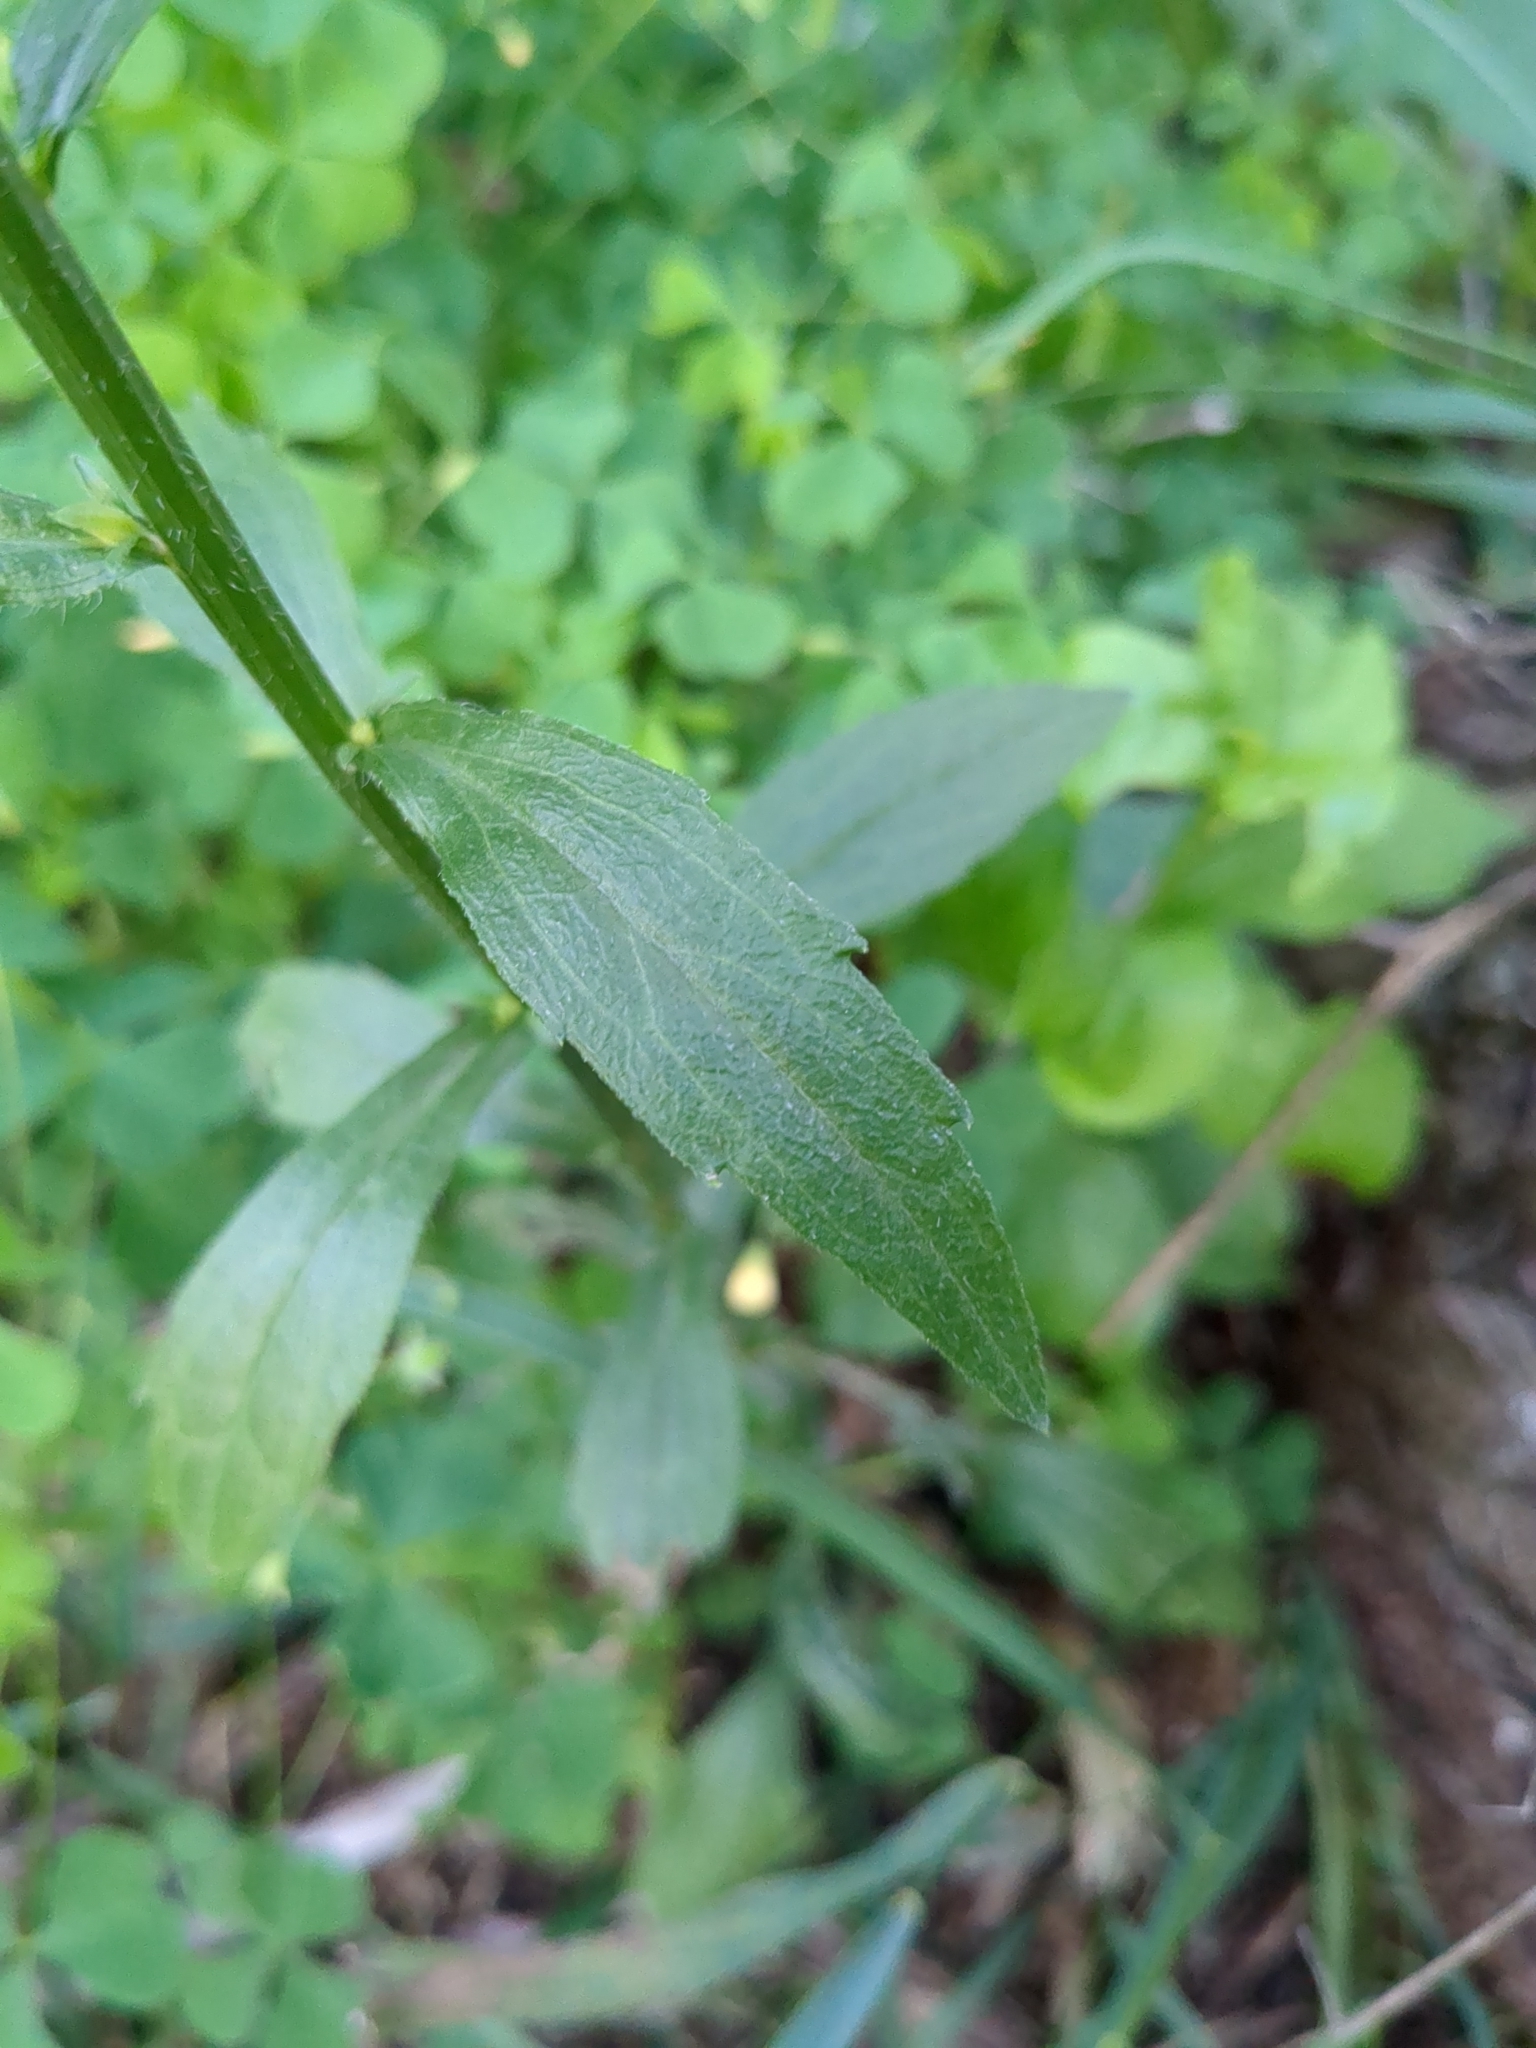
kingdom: Plantae
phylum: Tracheophyta
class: Magnoliopsida
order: Asterales
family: Asteraceae
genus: Erigeron
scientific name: Erigeron annuus
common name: Tall fleabane
